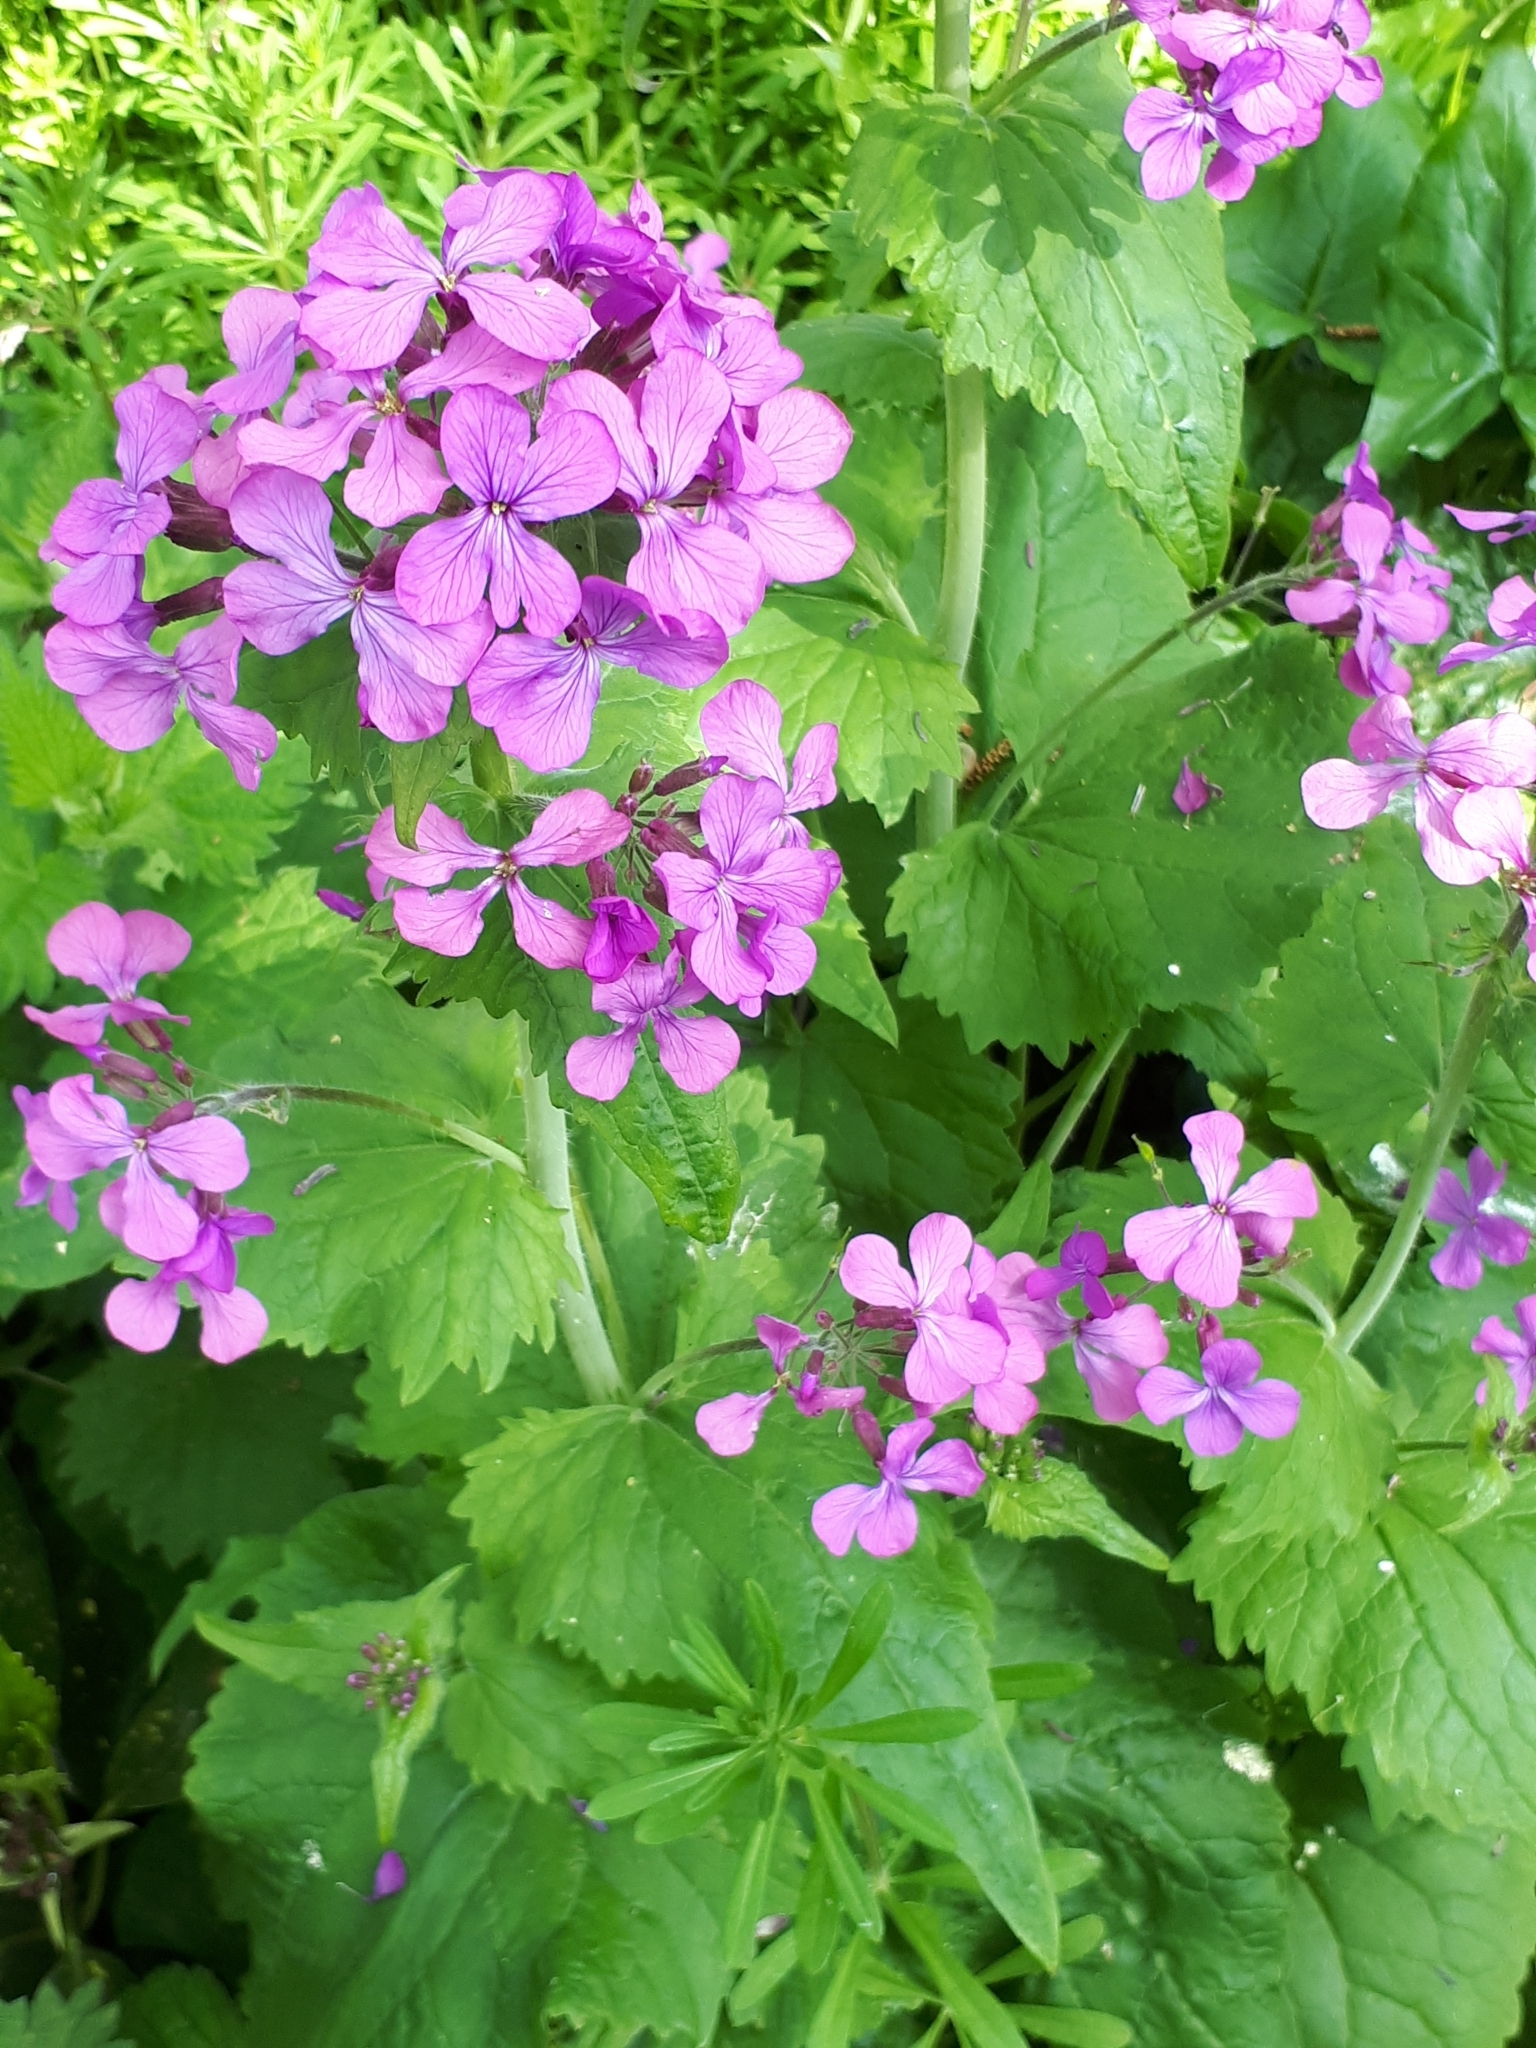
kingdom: Plantae
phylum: Tracheophyta
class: Magnoliopsida
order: Brassicales
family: Brassicaceae
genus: Lunaria
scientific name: Lunaria annua
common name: Honesty
